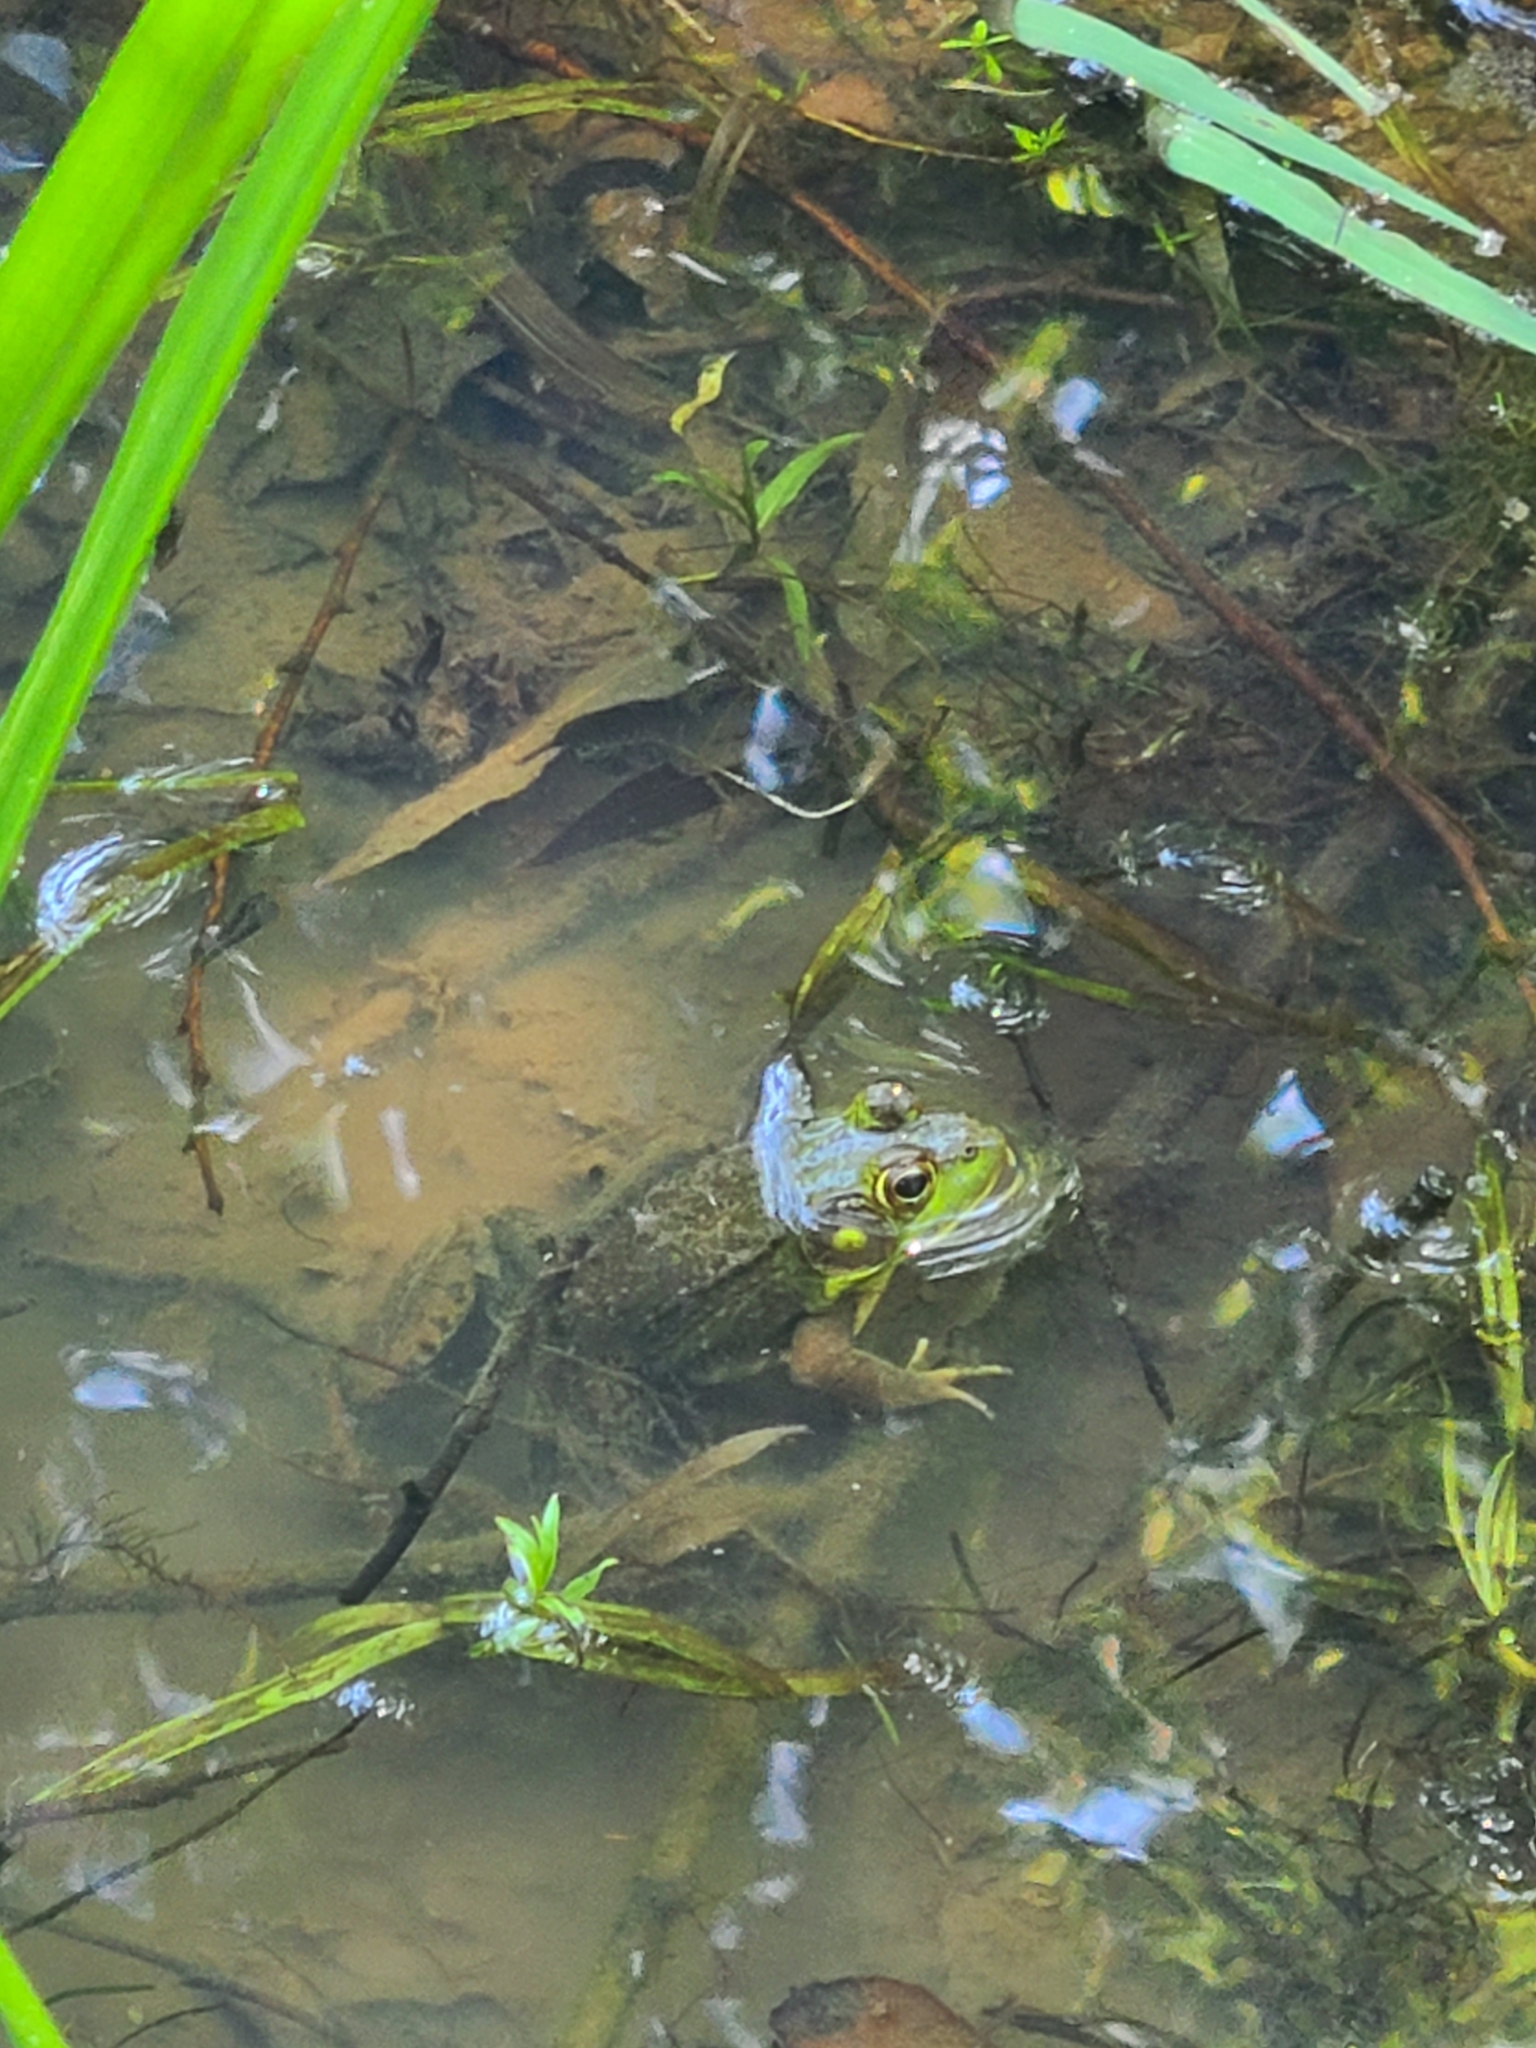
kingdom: Animalia
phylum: Chordata
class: Amphibia
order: Anura
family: Ranidae
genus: Lithobates
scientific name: Lithobates clamitans
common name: Green frog
